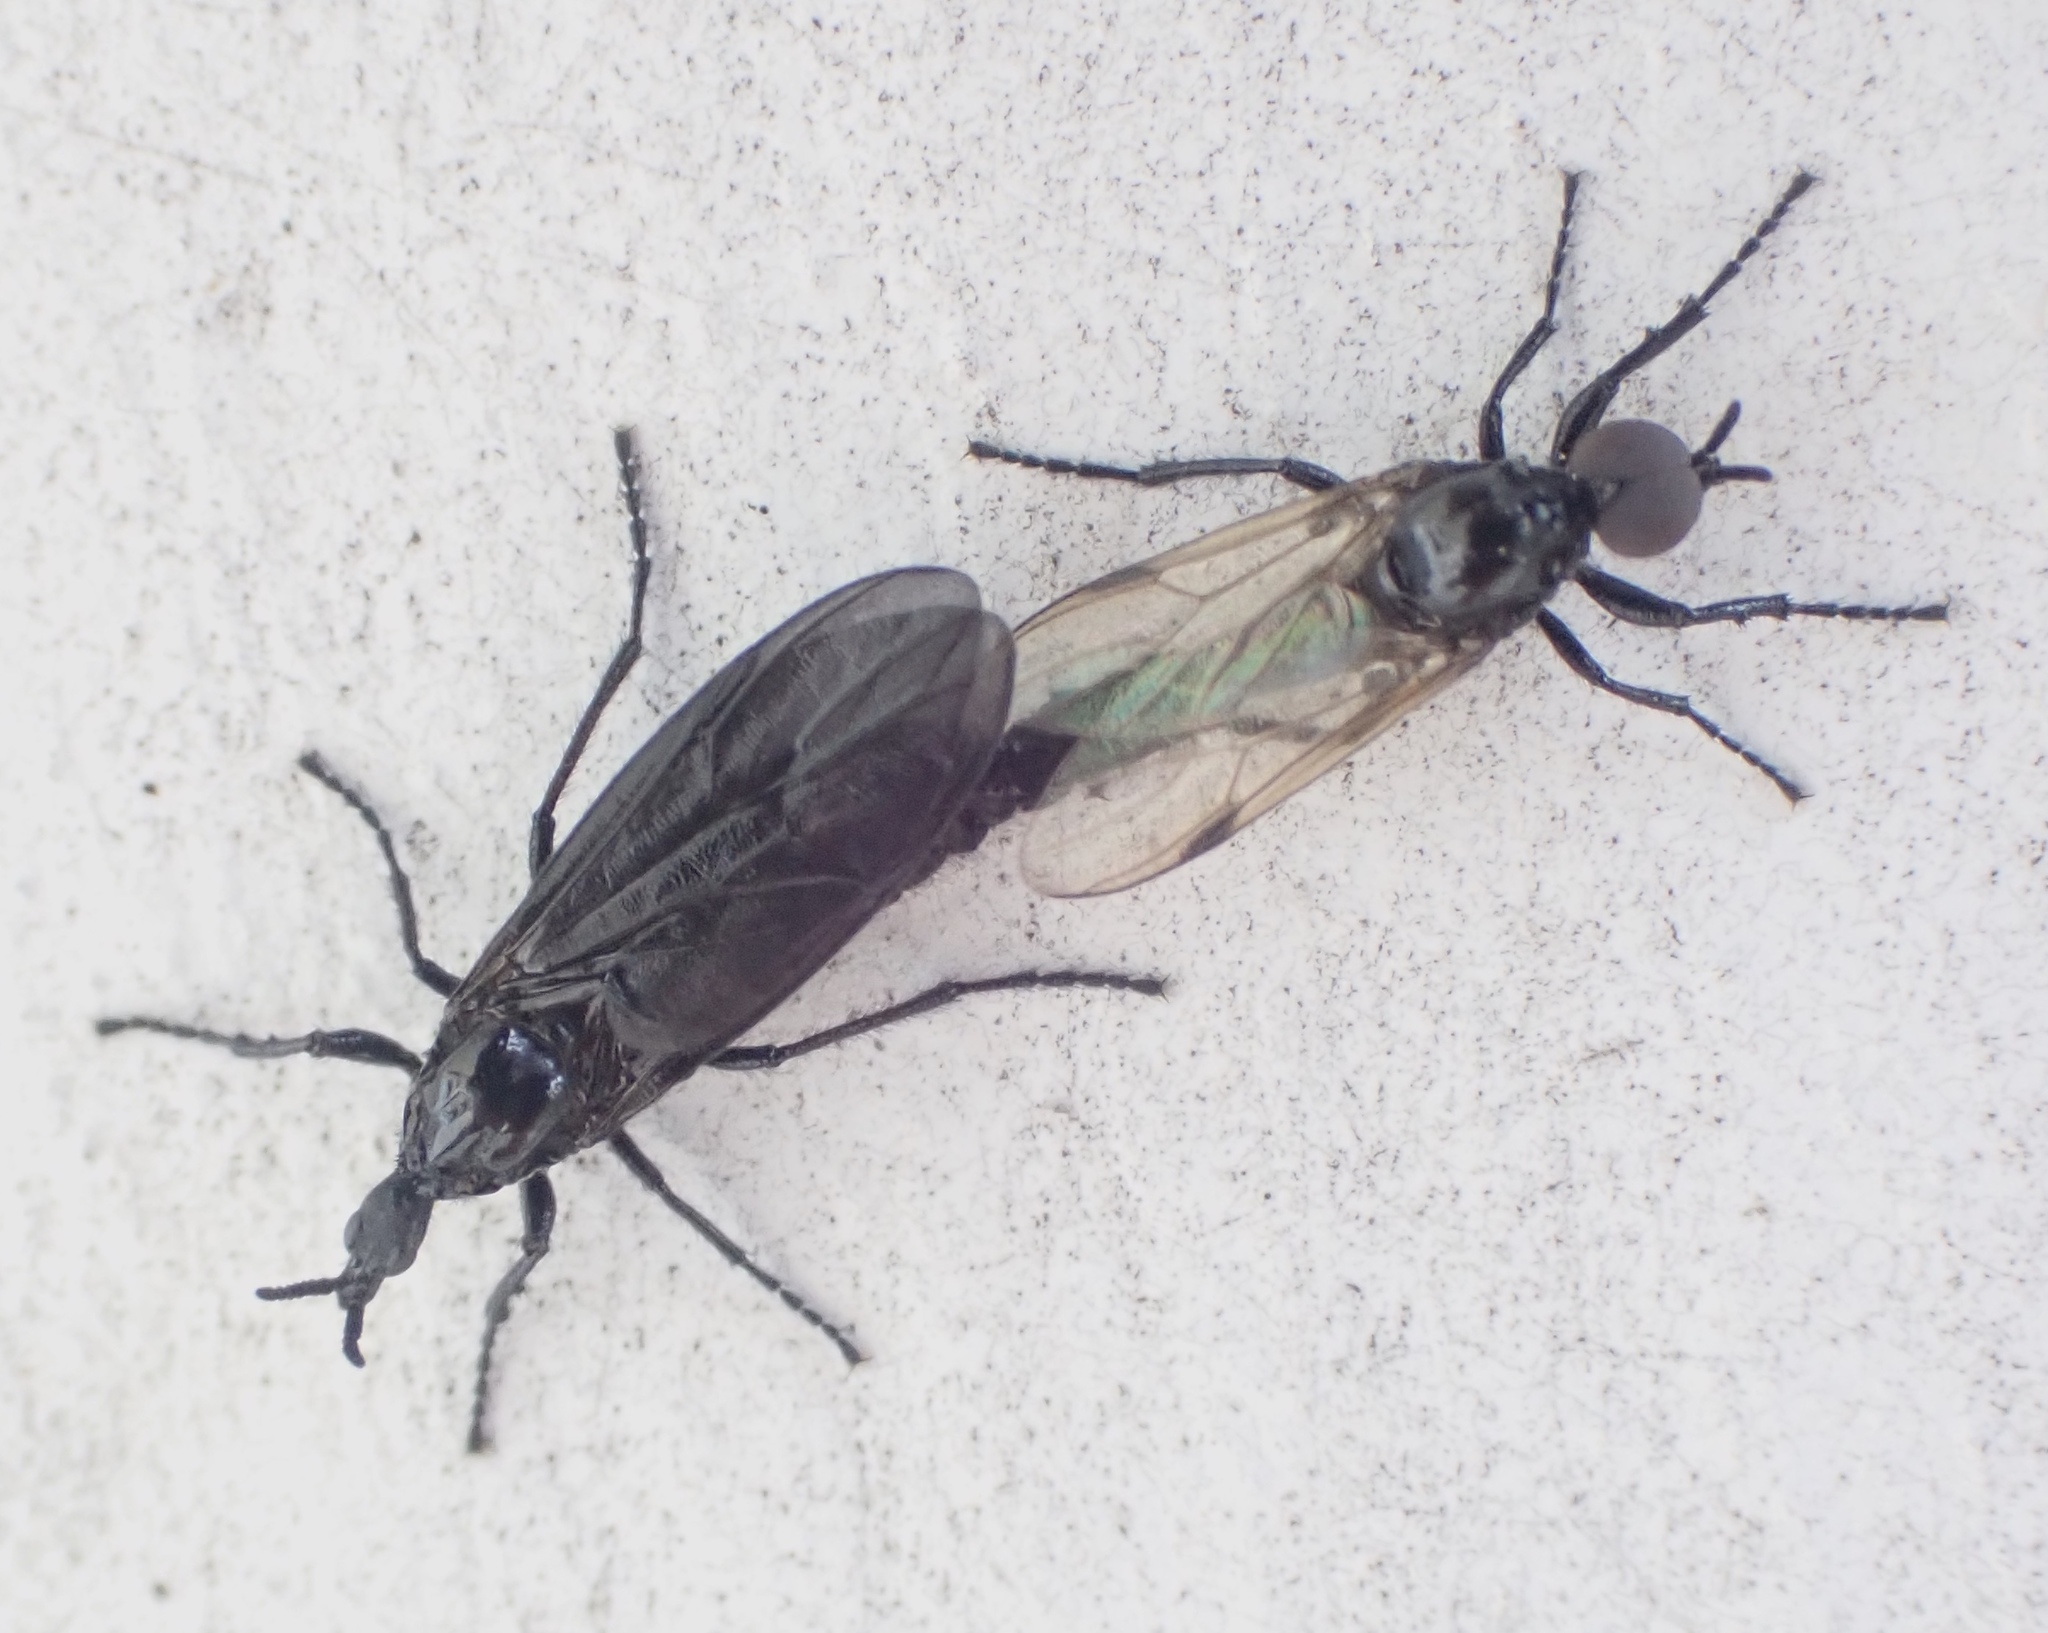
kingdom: Animalia
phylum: Arthropoda
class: Insecta
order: Diptera
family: Bibionidae
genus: Dilophus
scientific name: Dilophus orbatus
